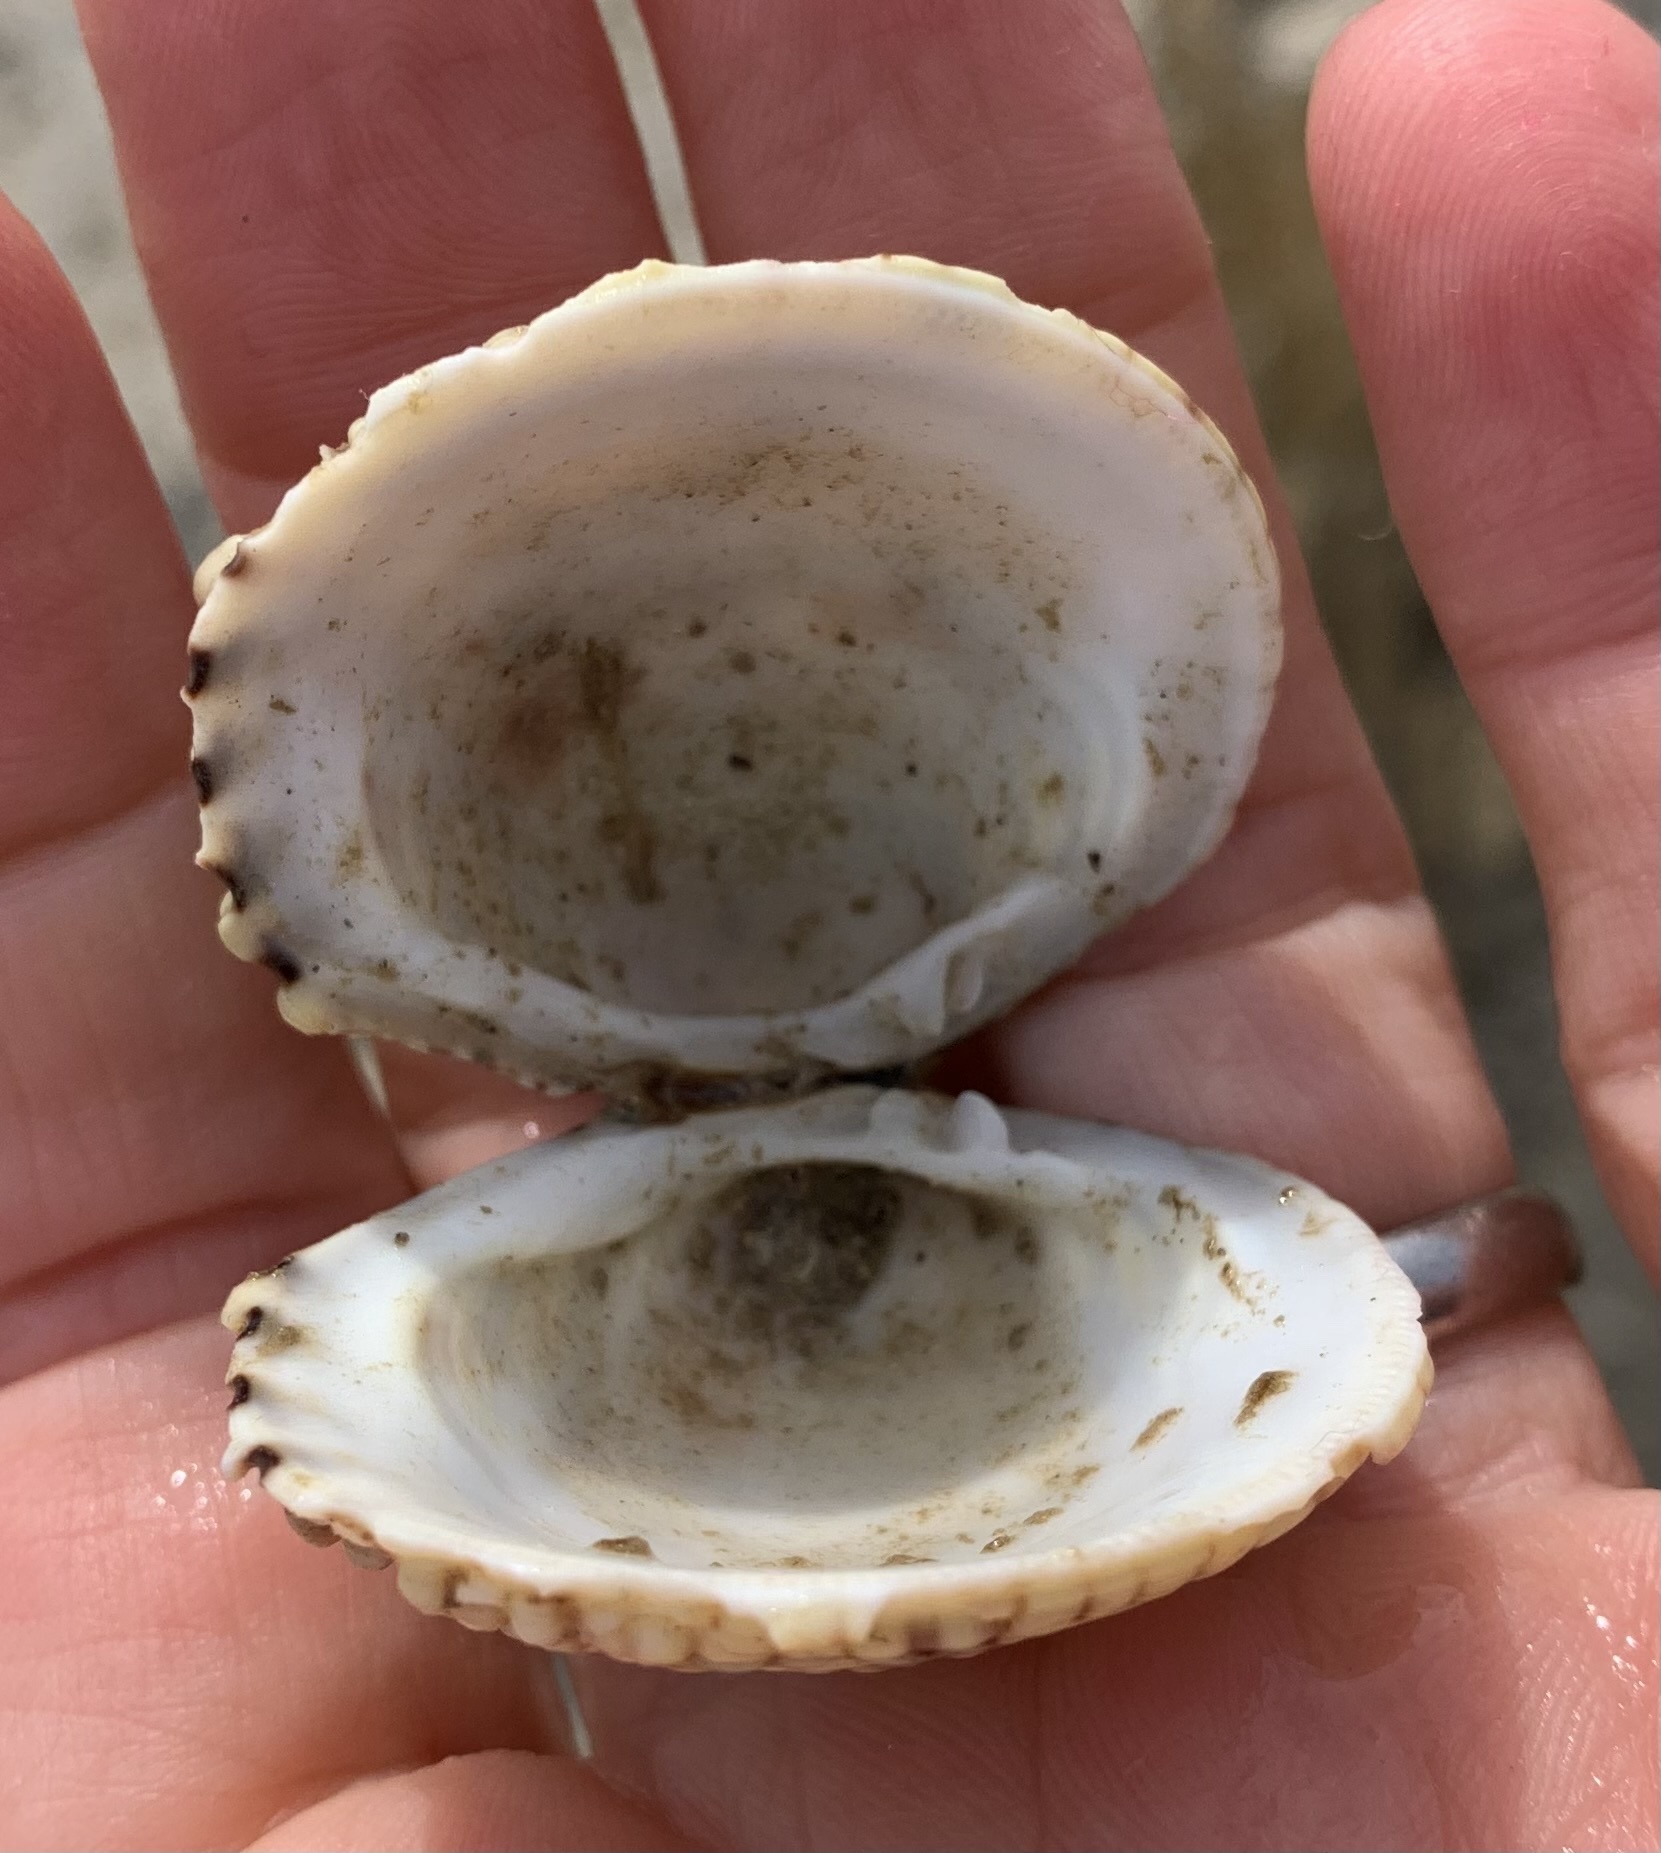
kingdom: Animalia
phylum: Mollusca
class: Bivalvia
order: Venerida
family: Veneridae
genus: Venus
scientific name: Venus verrucosa
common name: Warty venus
